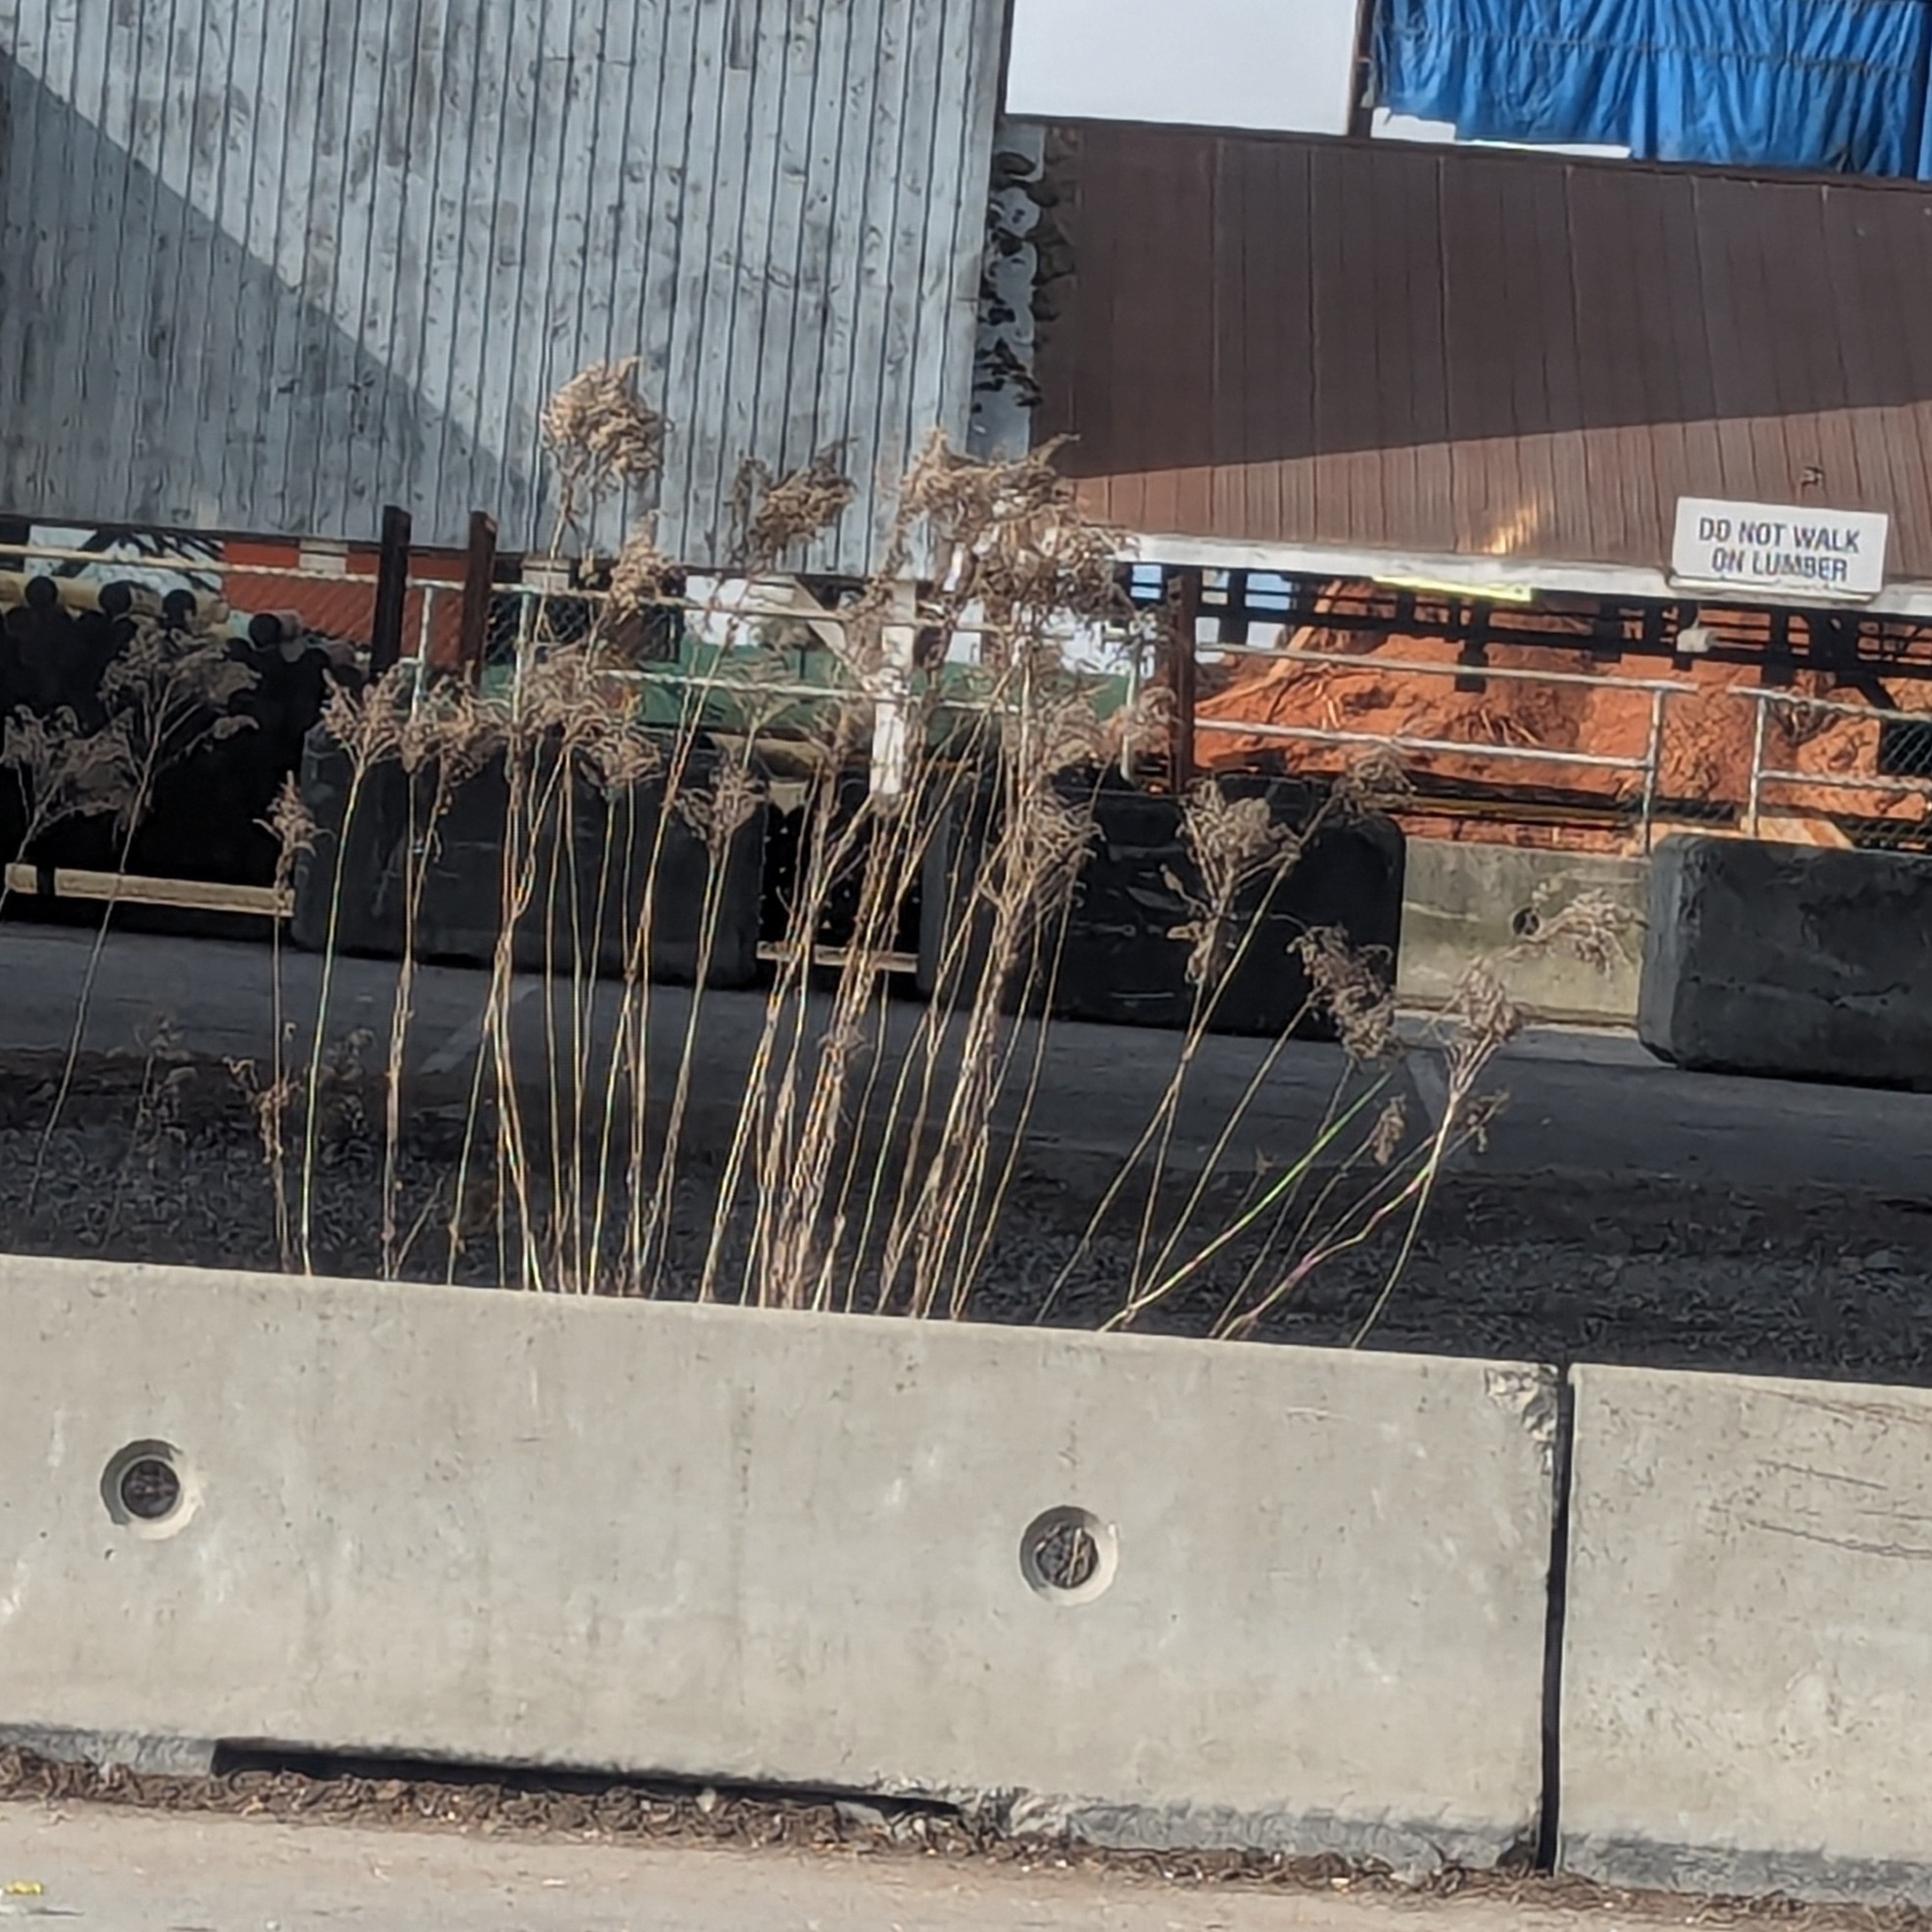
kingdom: Plantae
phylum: Tracheophyta
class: Liliopsida
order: Poales
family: Poaceae
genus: Phragmites
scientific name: Phragmites australis
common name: Common reed
